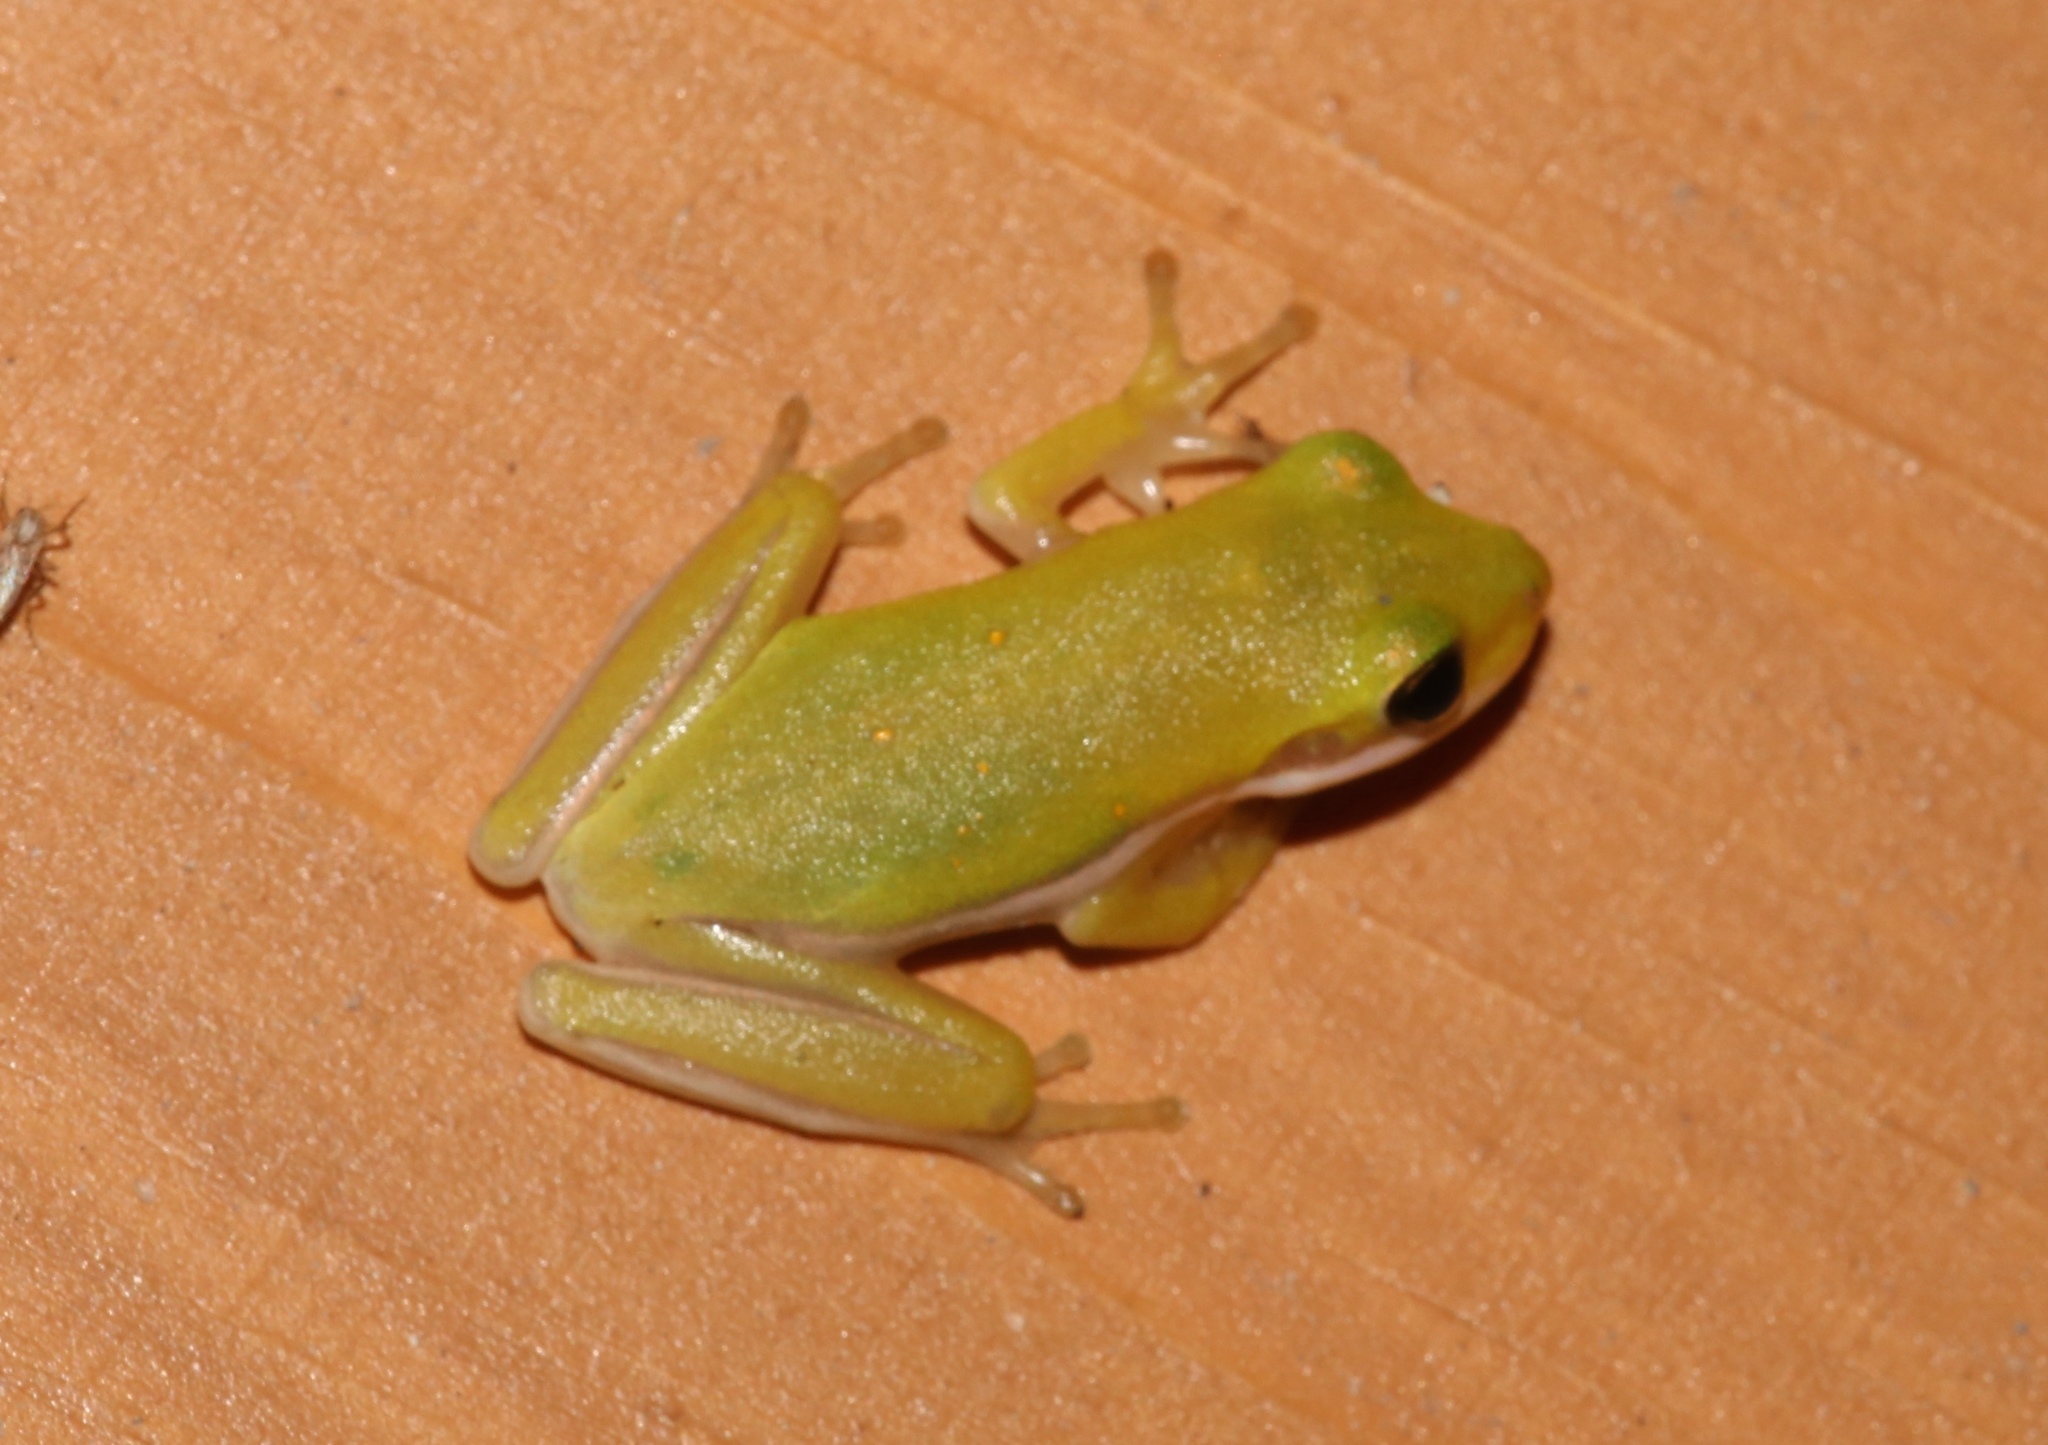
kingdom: Animalia
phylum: Chordata
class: Amphibia
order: Anura
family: Hylidae
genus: Dryophytes
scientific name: Dryophytes cinereus
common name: Green treefrog
